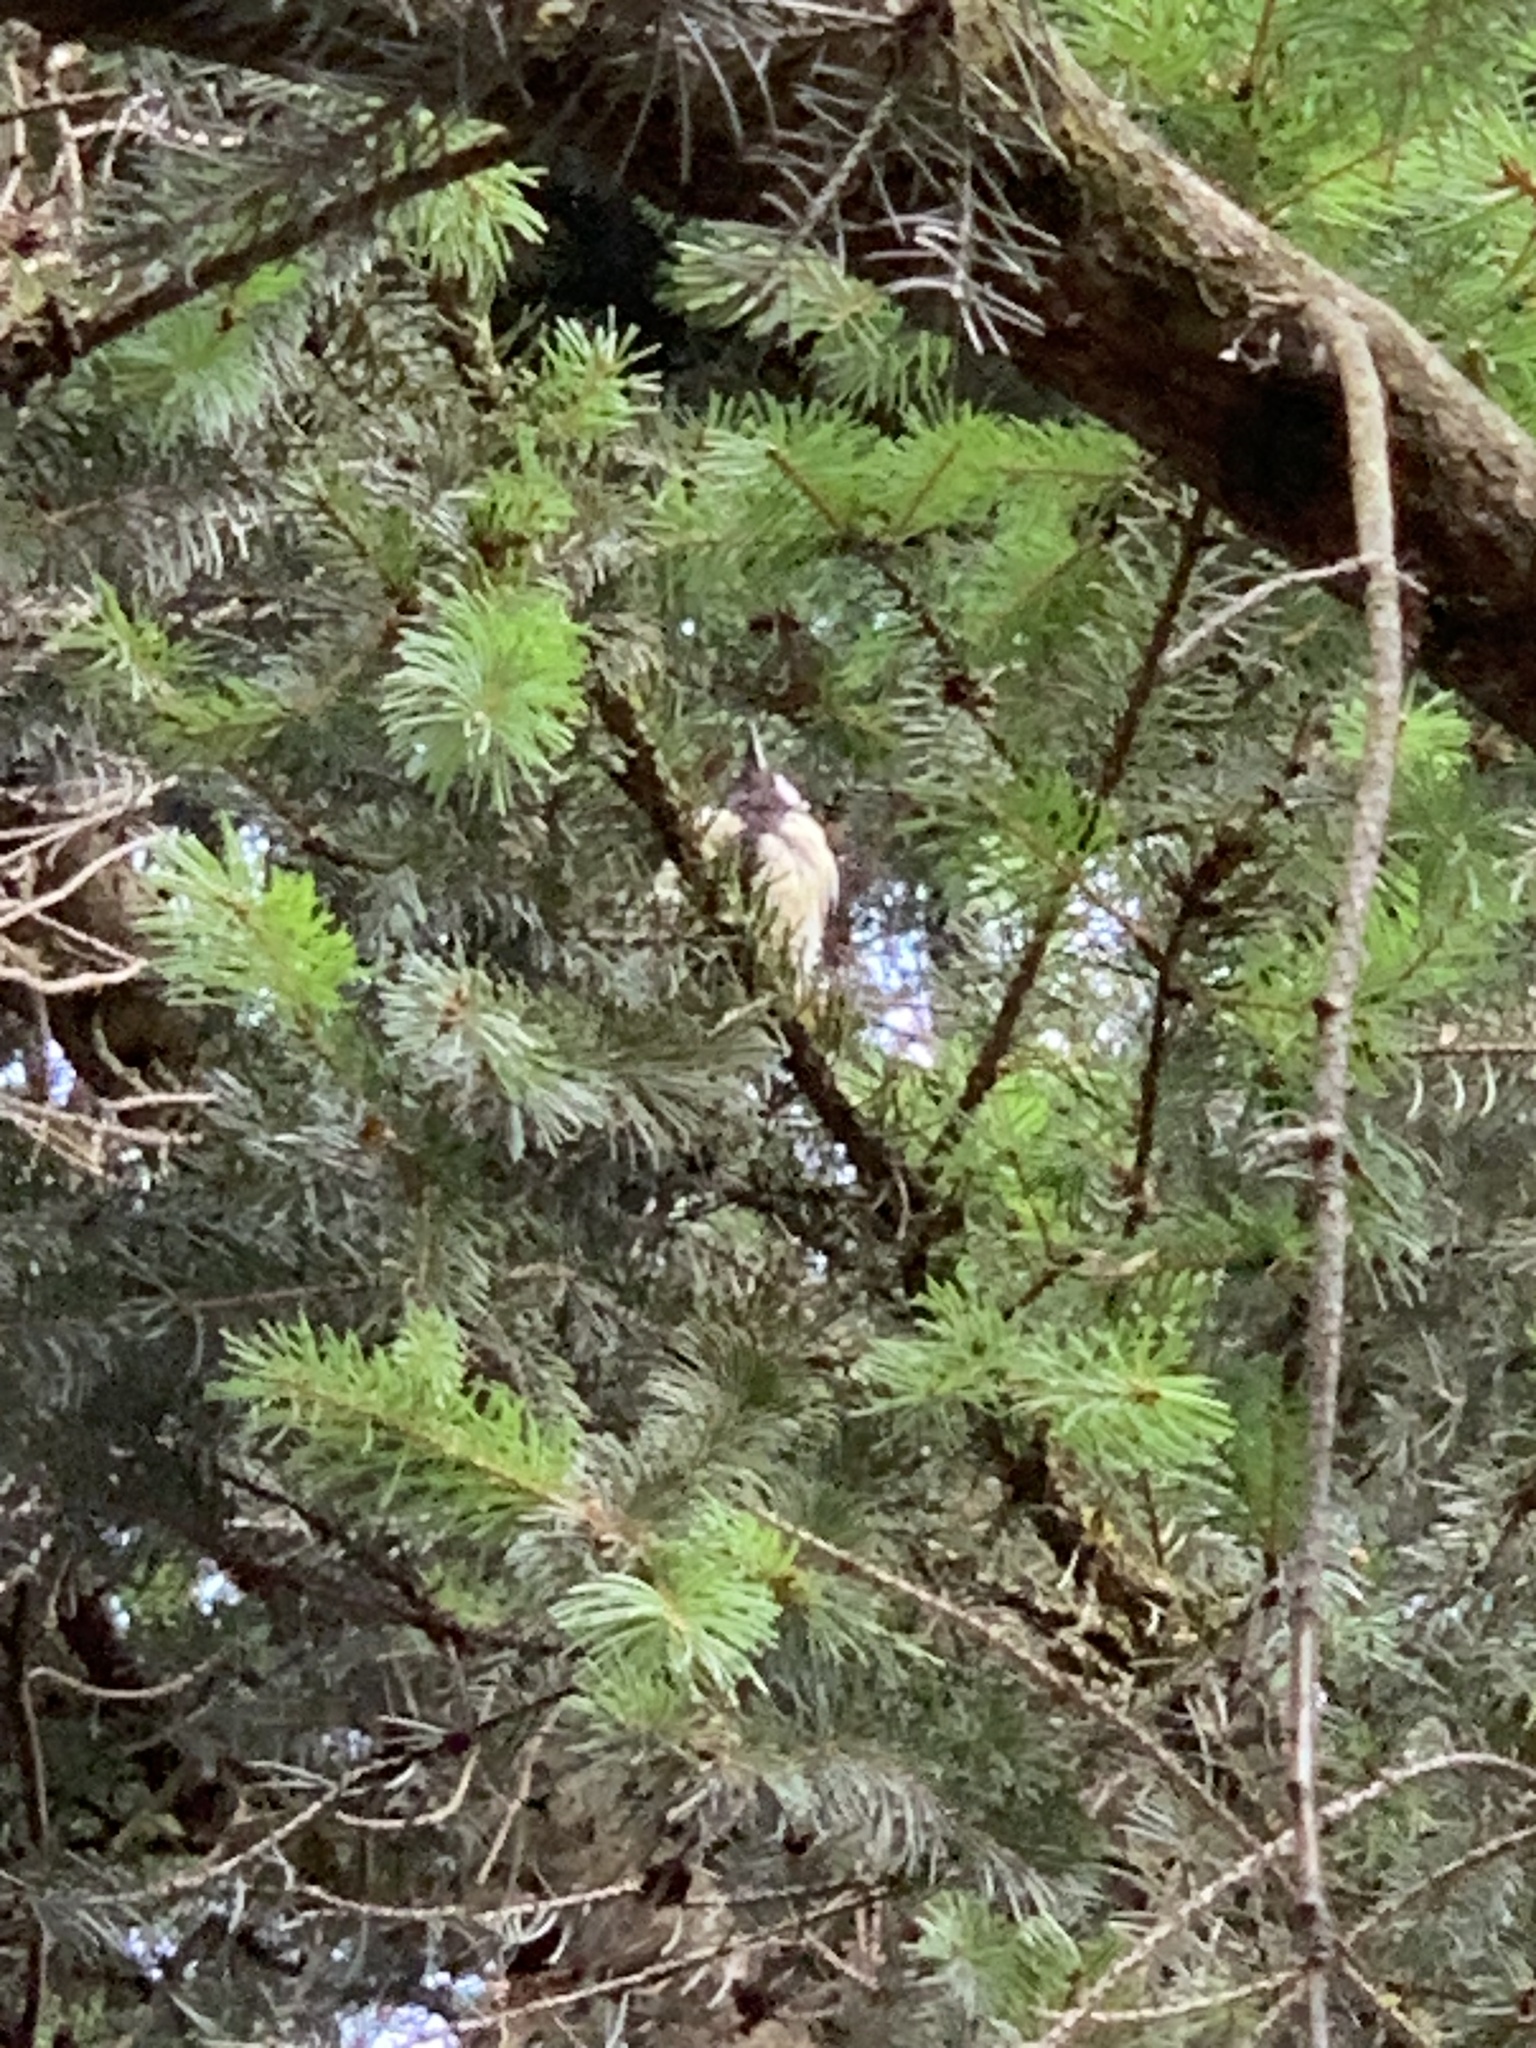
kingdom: Animalia
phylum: Chordata
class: Aves
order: Passeriformes
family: Paridae
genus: Parus
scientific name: Parus major
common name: Great tit
